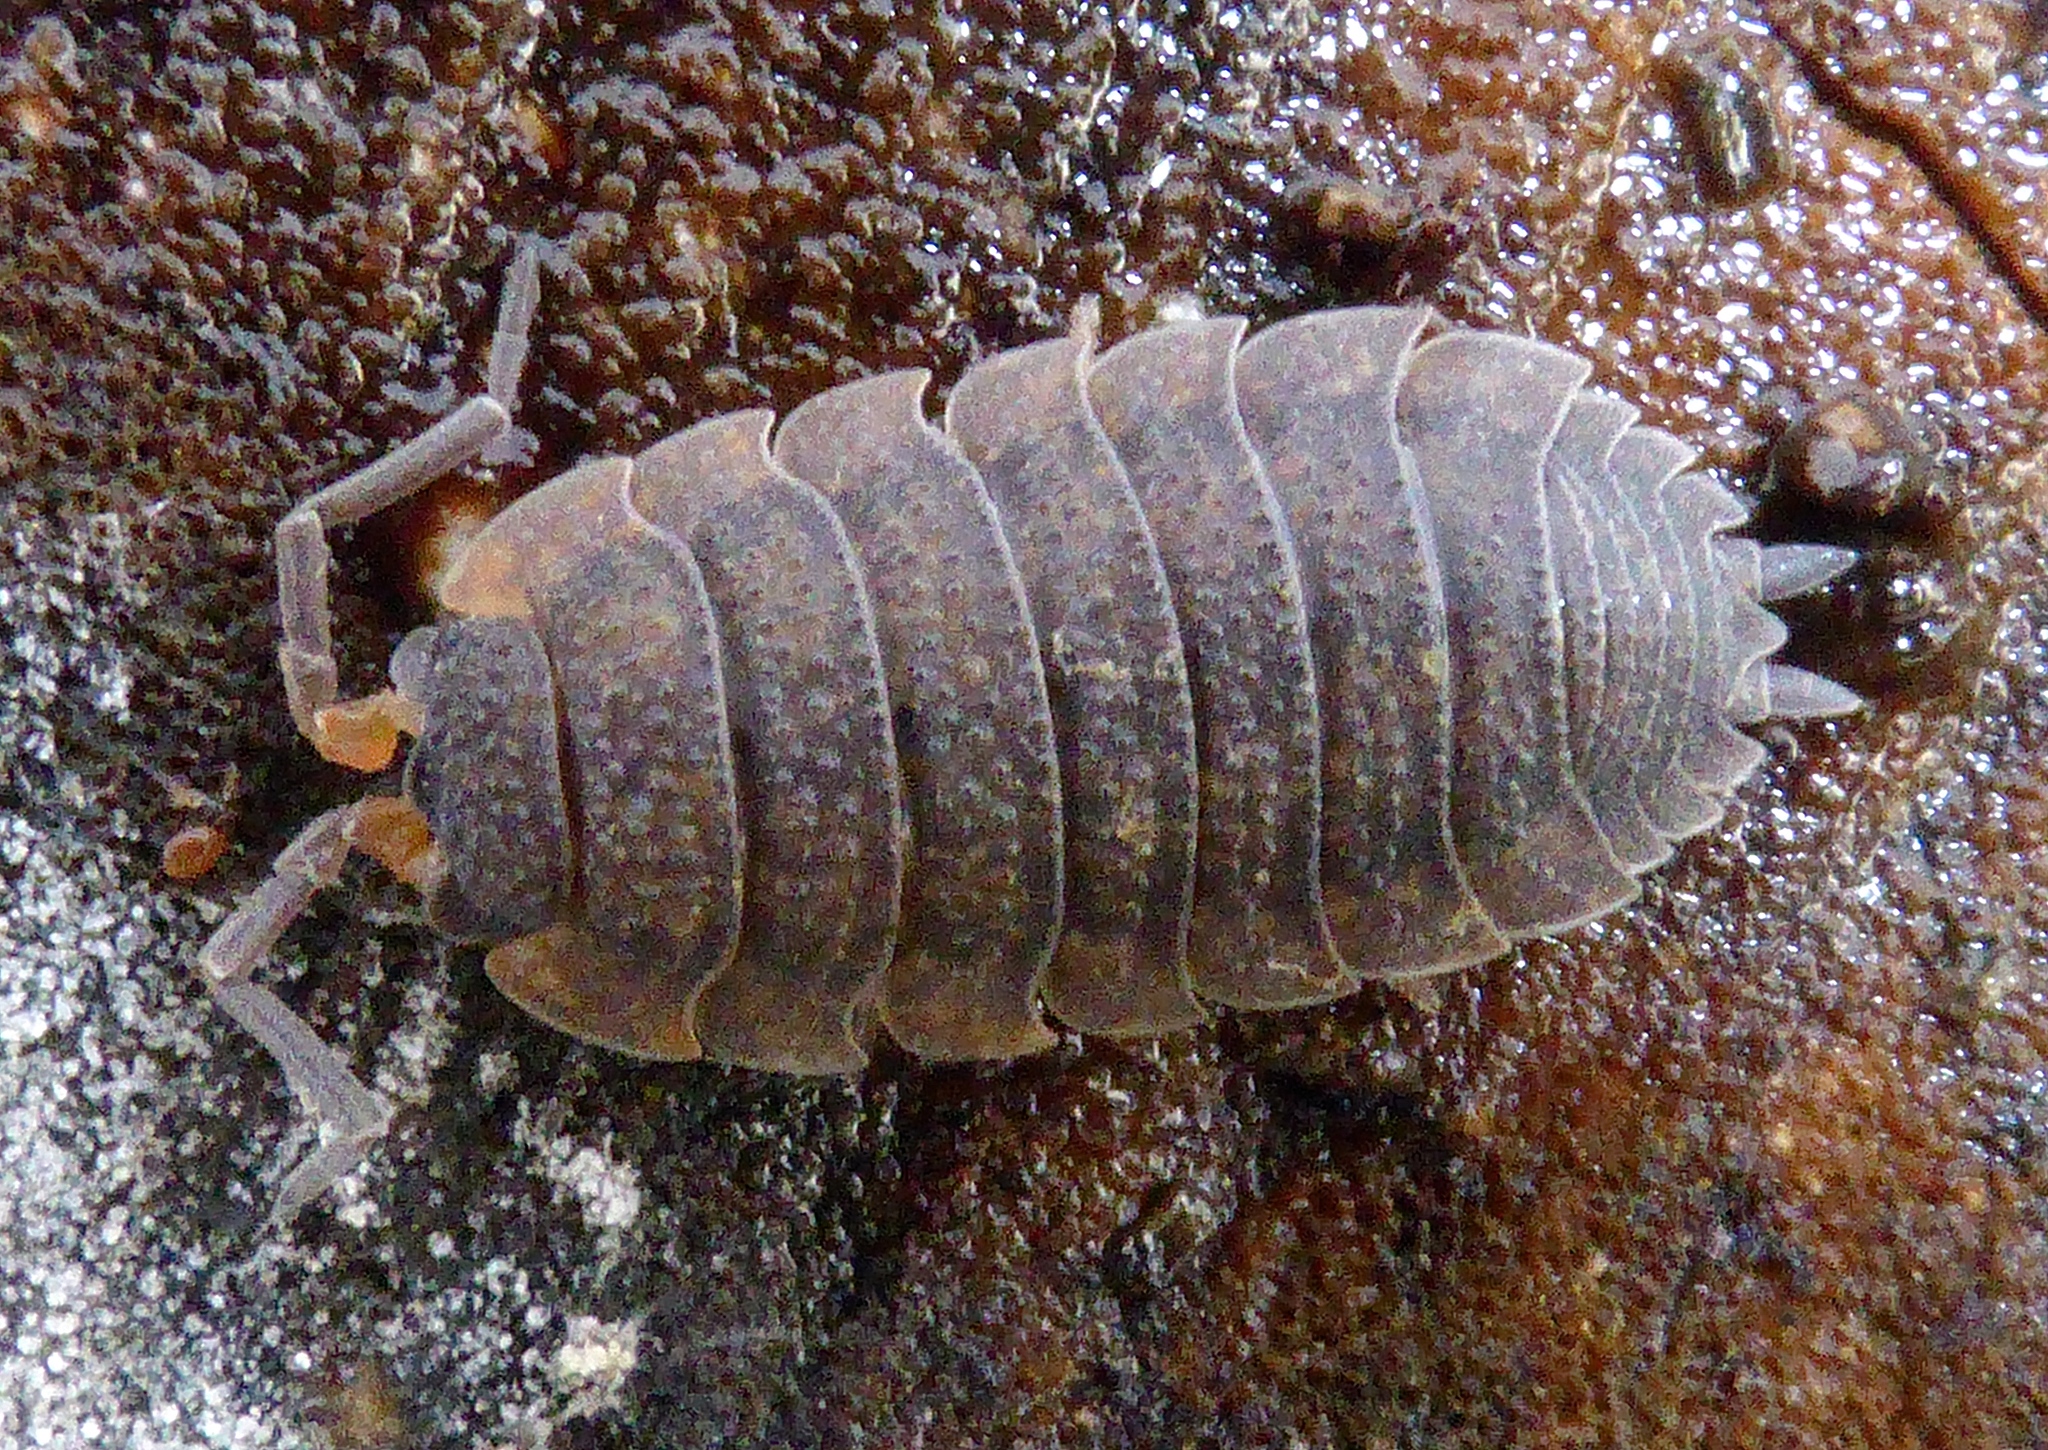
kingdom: Animalia
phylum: Arthropoda
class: Malacostraca
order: Isopoda
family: Porcellionidae
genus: Porcellio
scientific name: Porcellio scaber
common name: Common rough woodlouse
